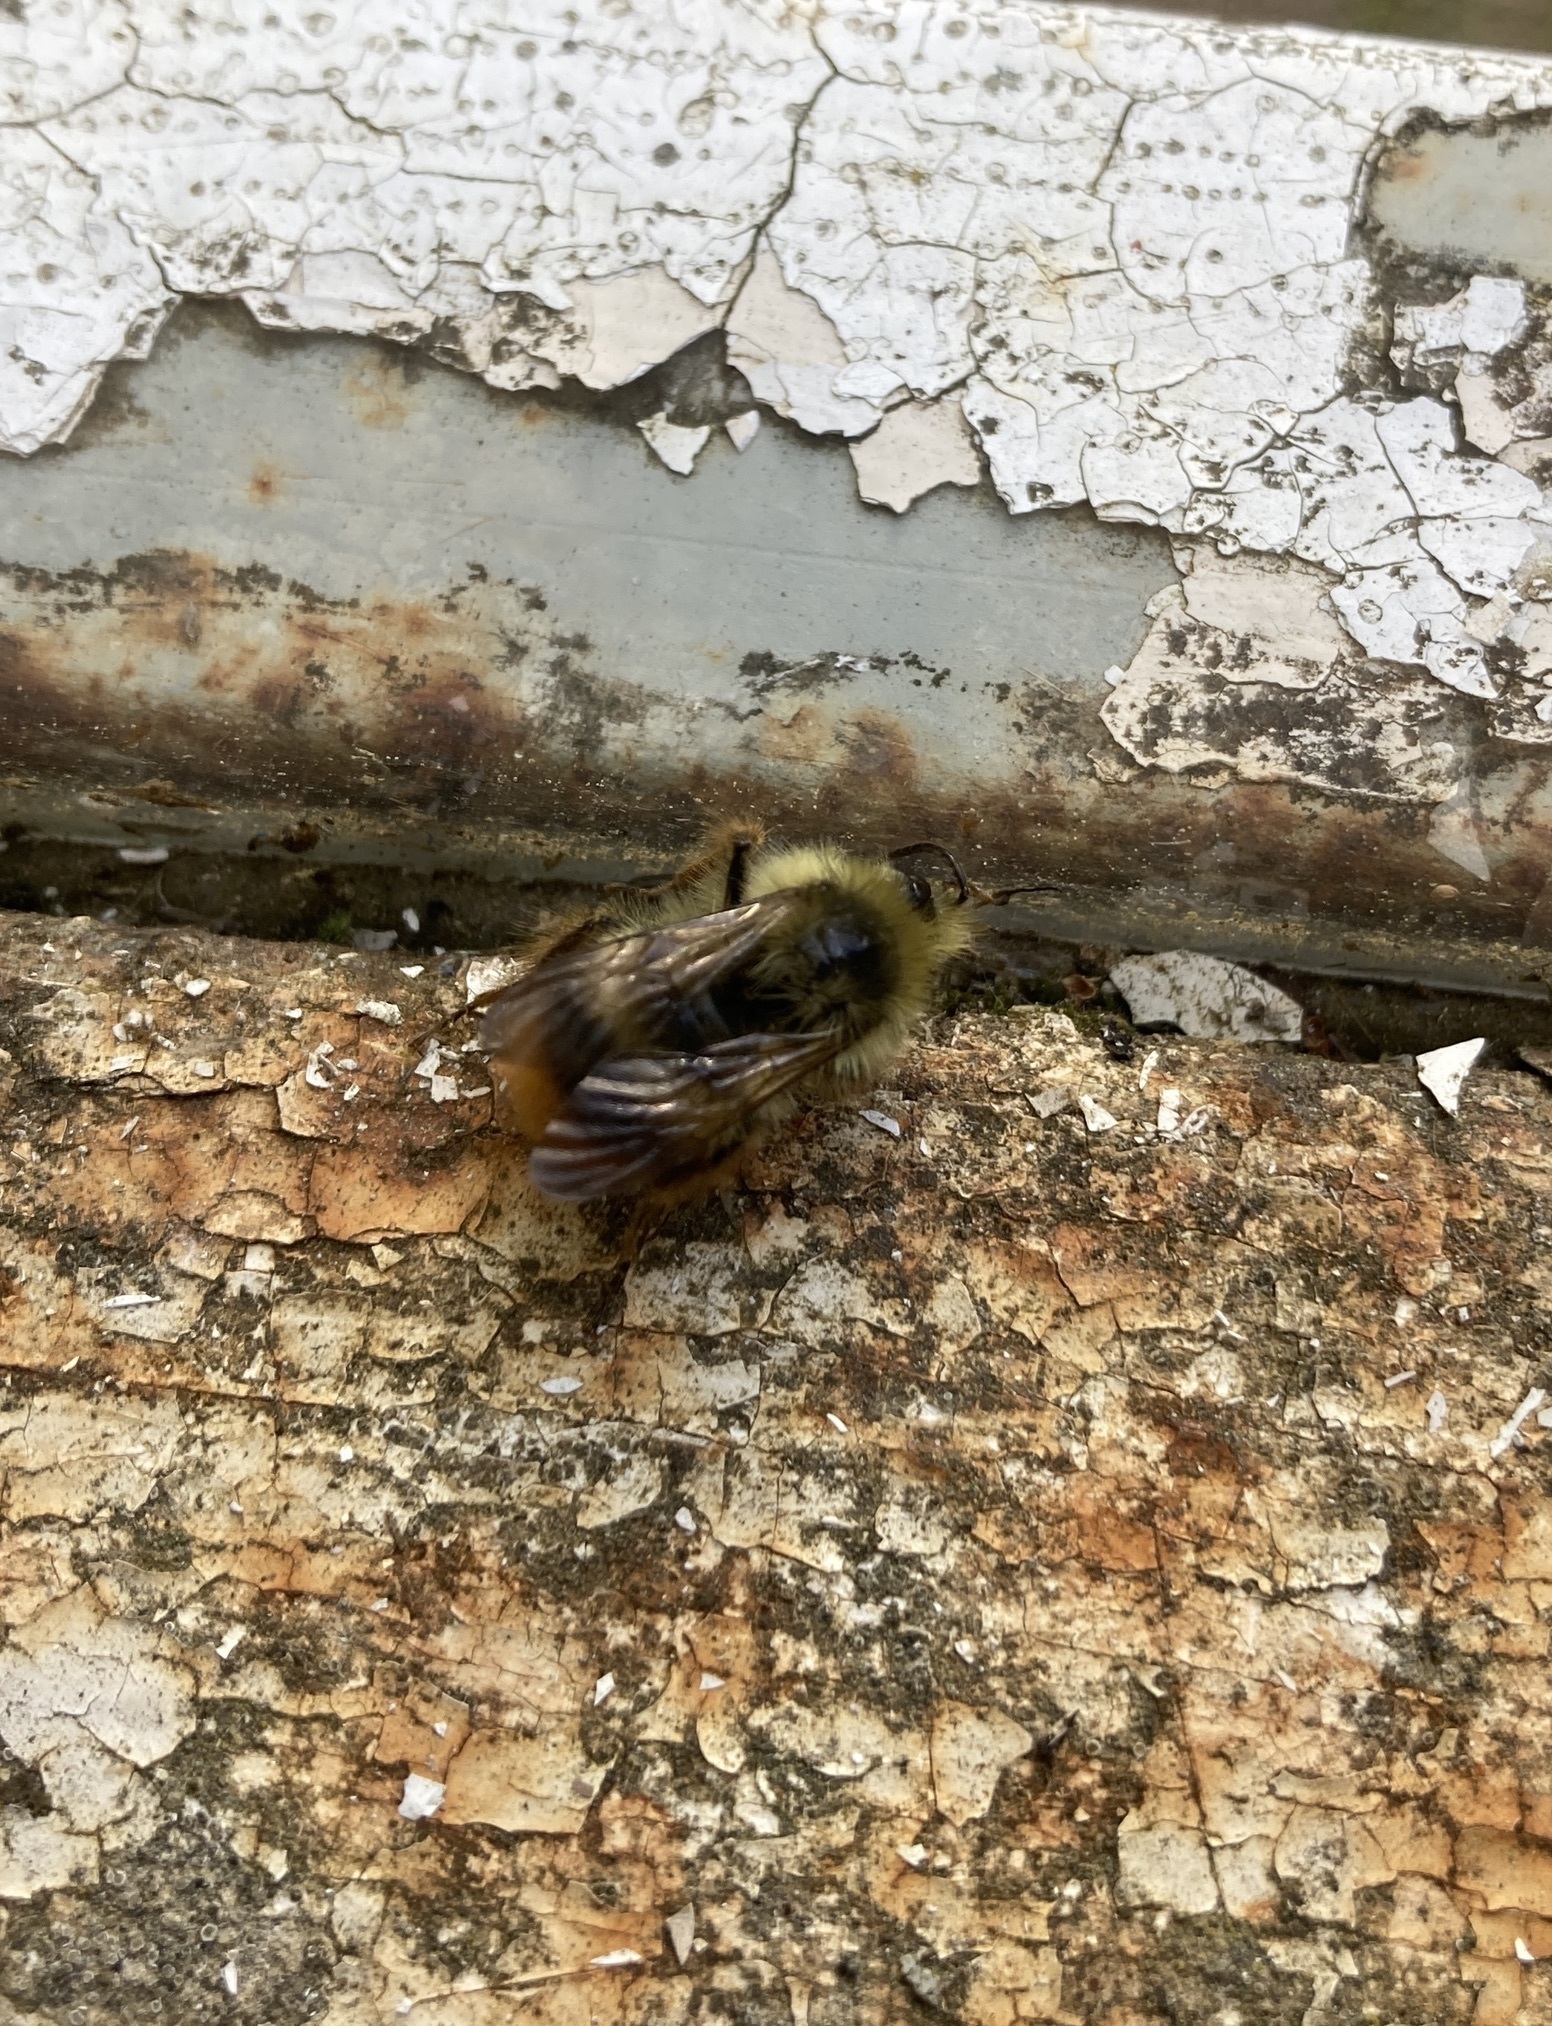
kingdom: Animalia
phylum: Arthropoda
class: Insecta
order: Hymenoptera
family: Apidae
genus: Bombus
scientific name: Bombus mixtus
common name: Fuzzy-horned bumble bee
